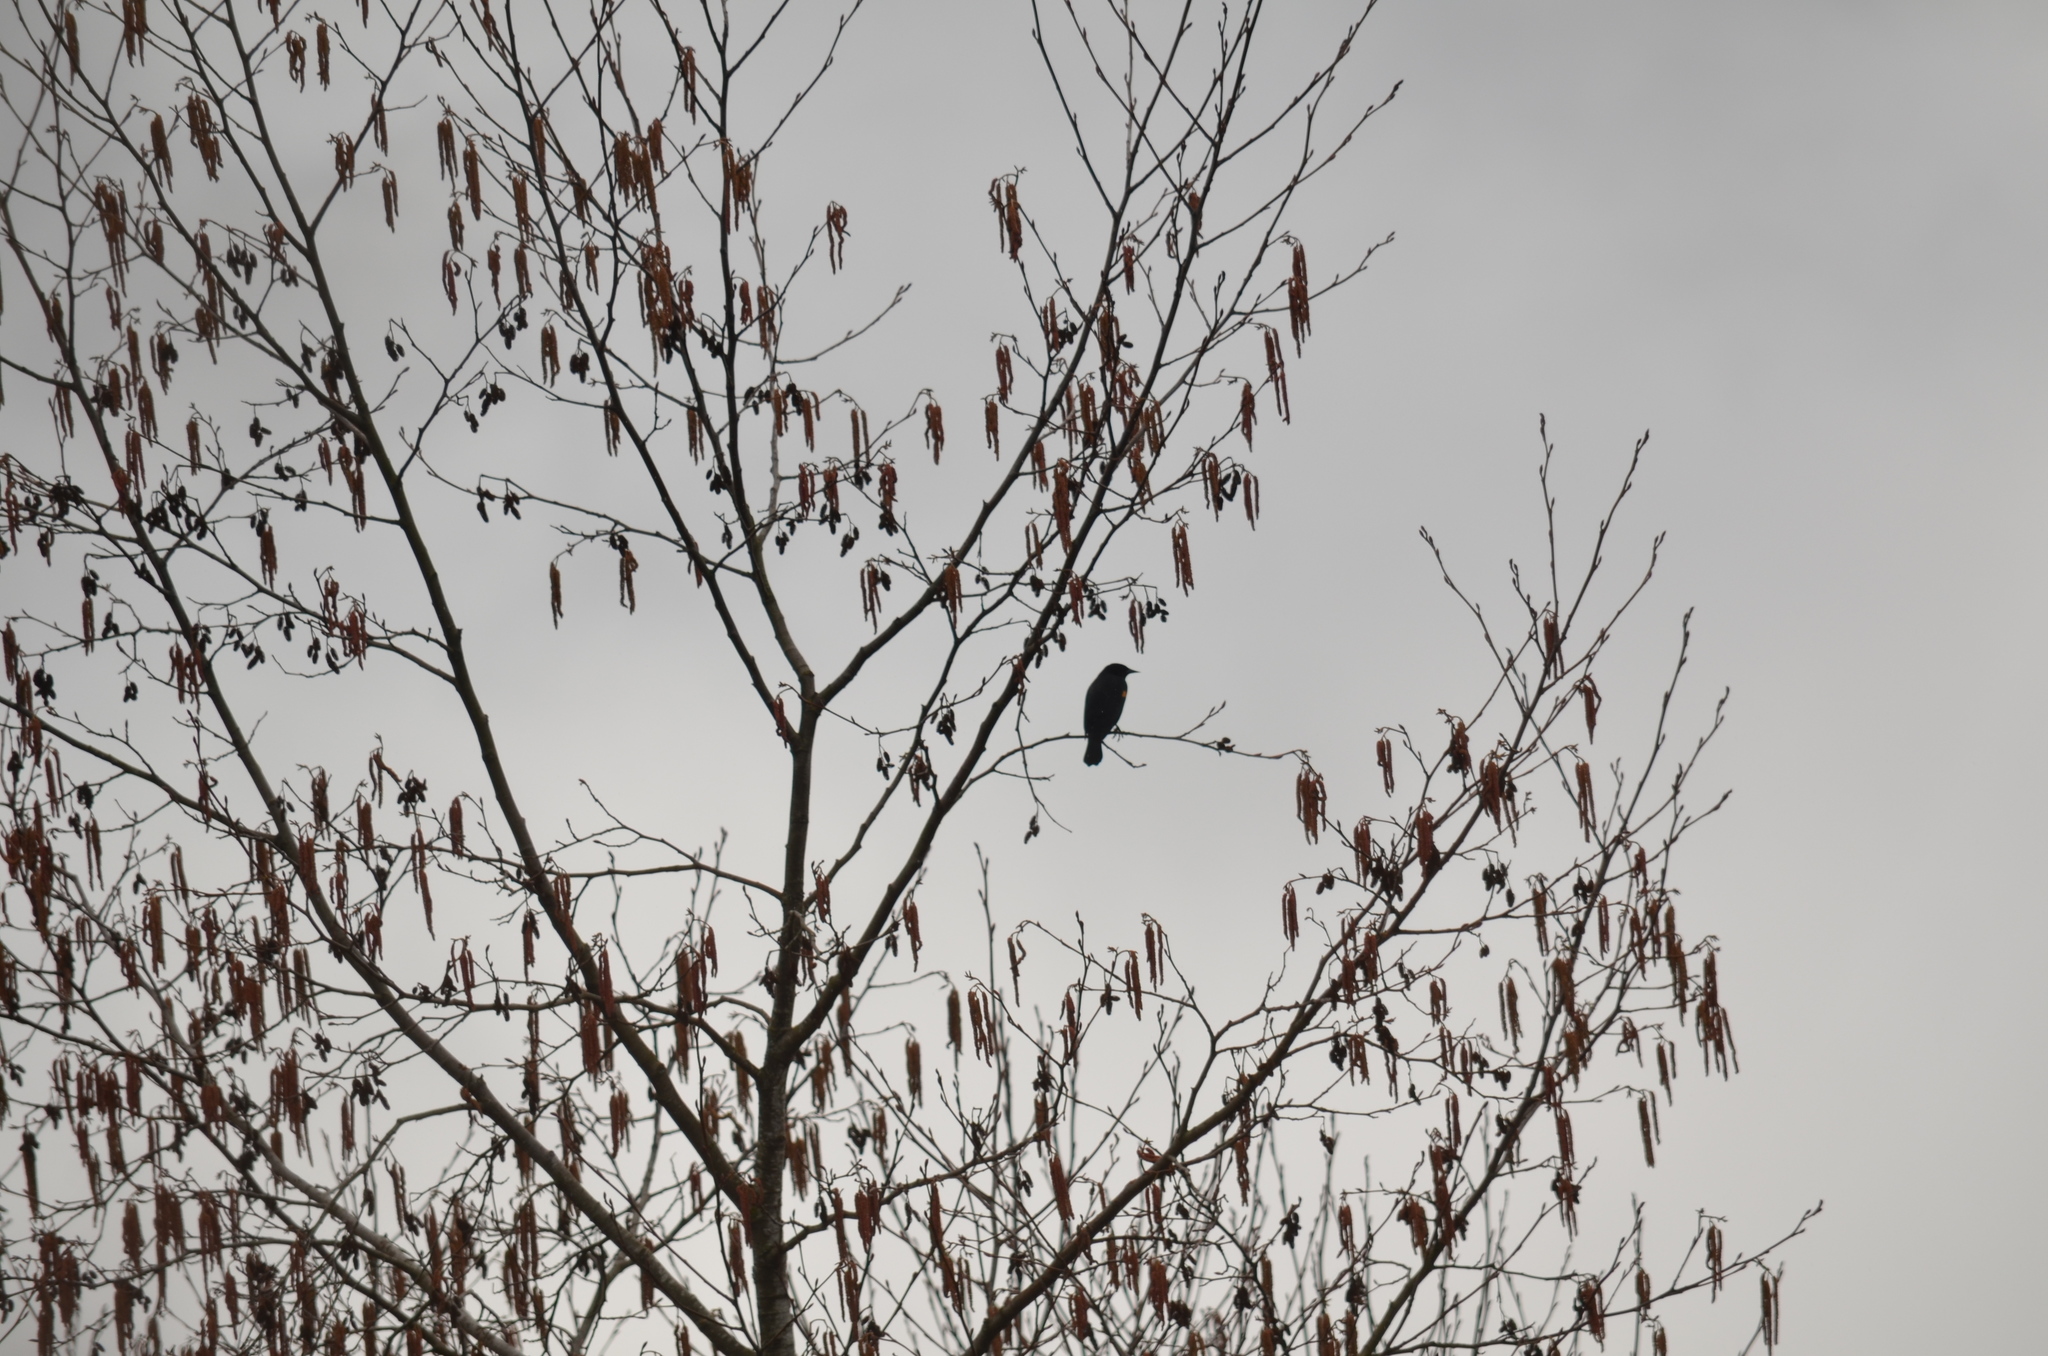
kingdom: Animalia
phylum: Chordata
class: Aves
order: Passeriformes
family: Icteridae
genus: Agelaius
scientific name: Agelaius phoeniceus
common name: Red-winged blackbird
